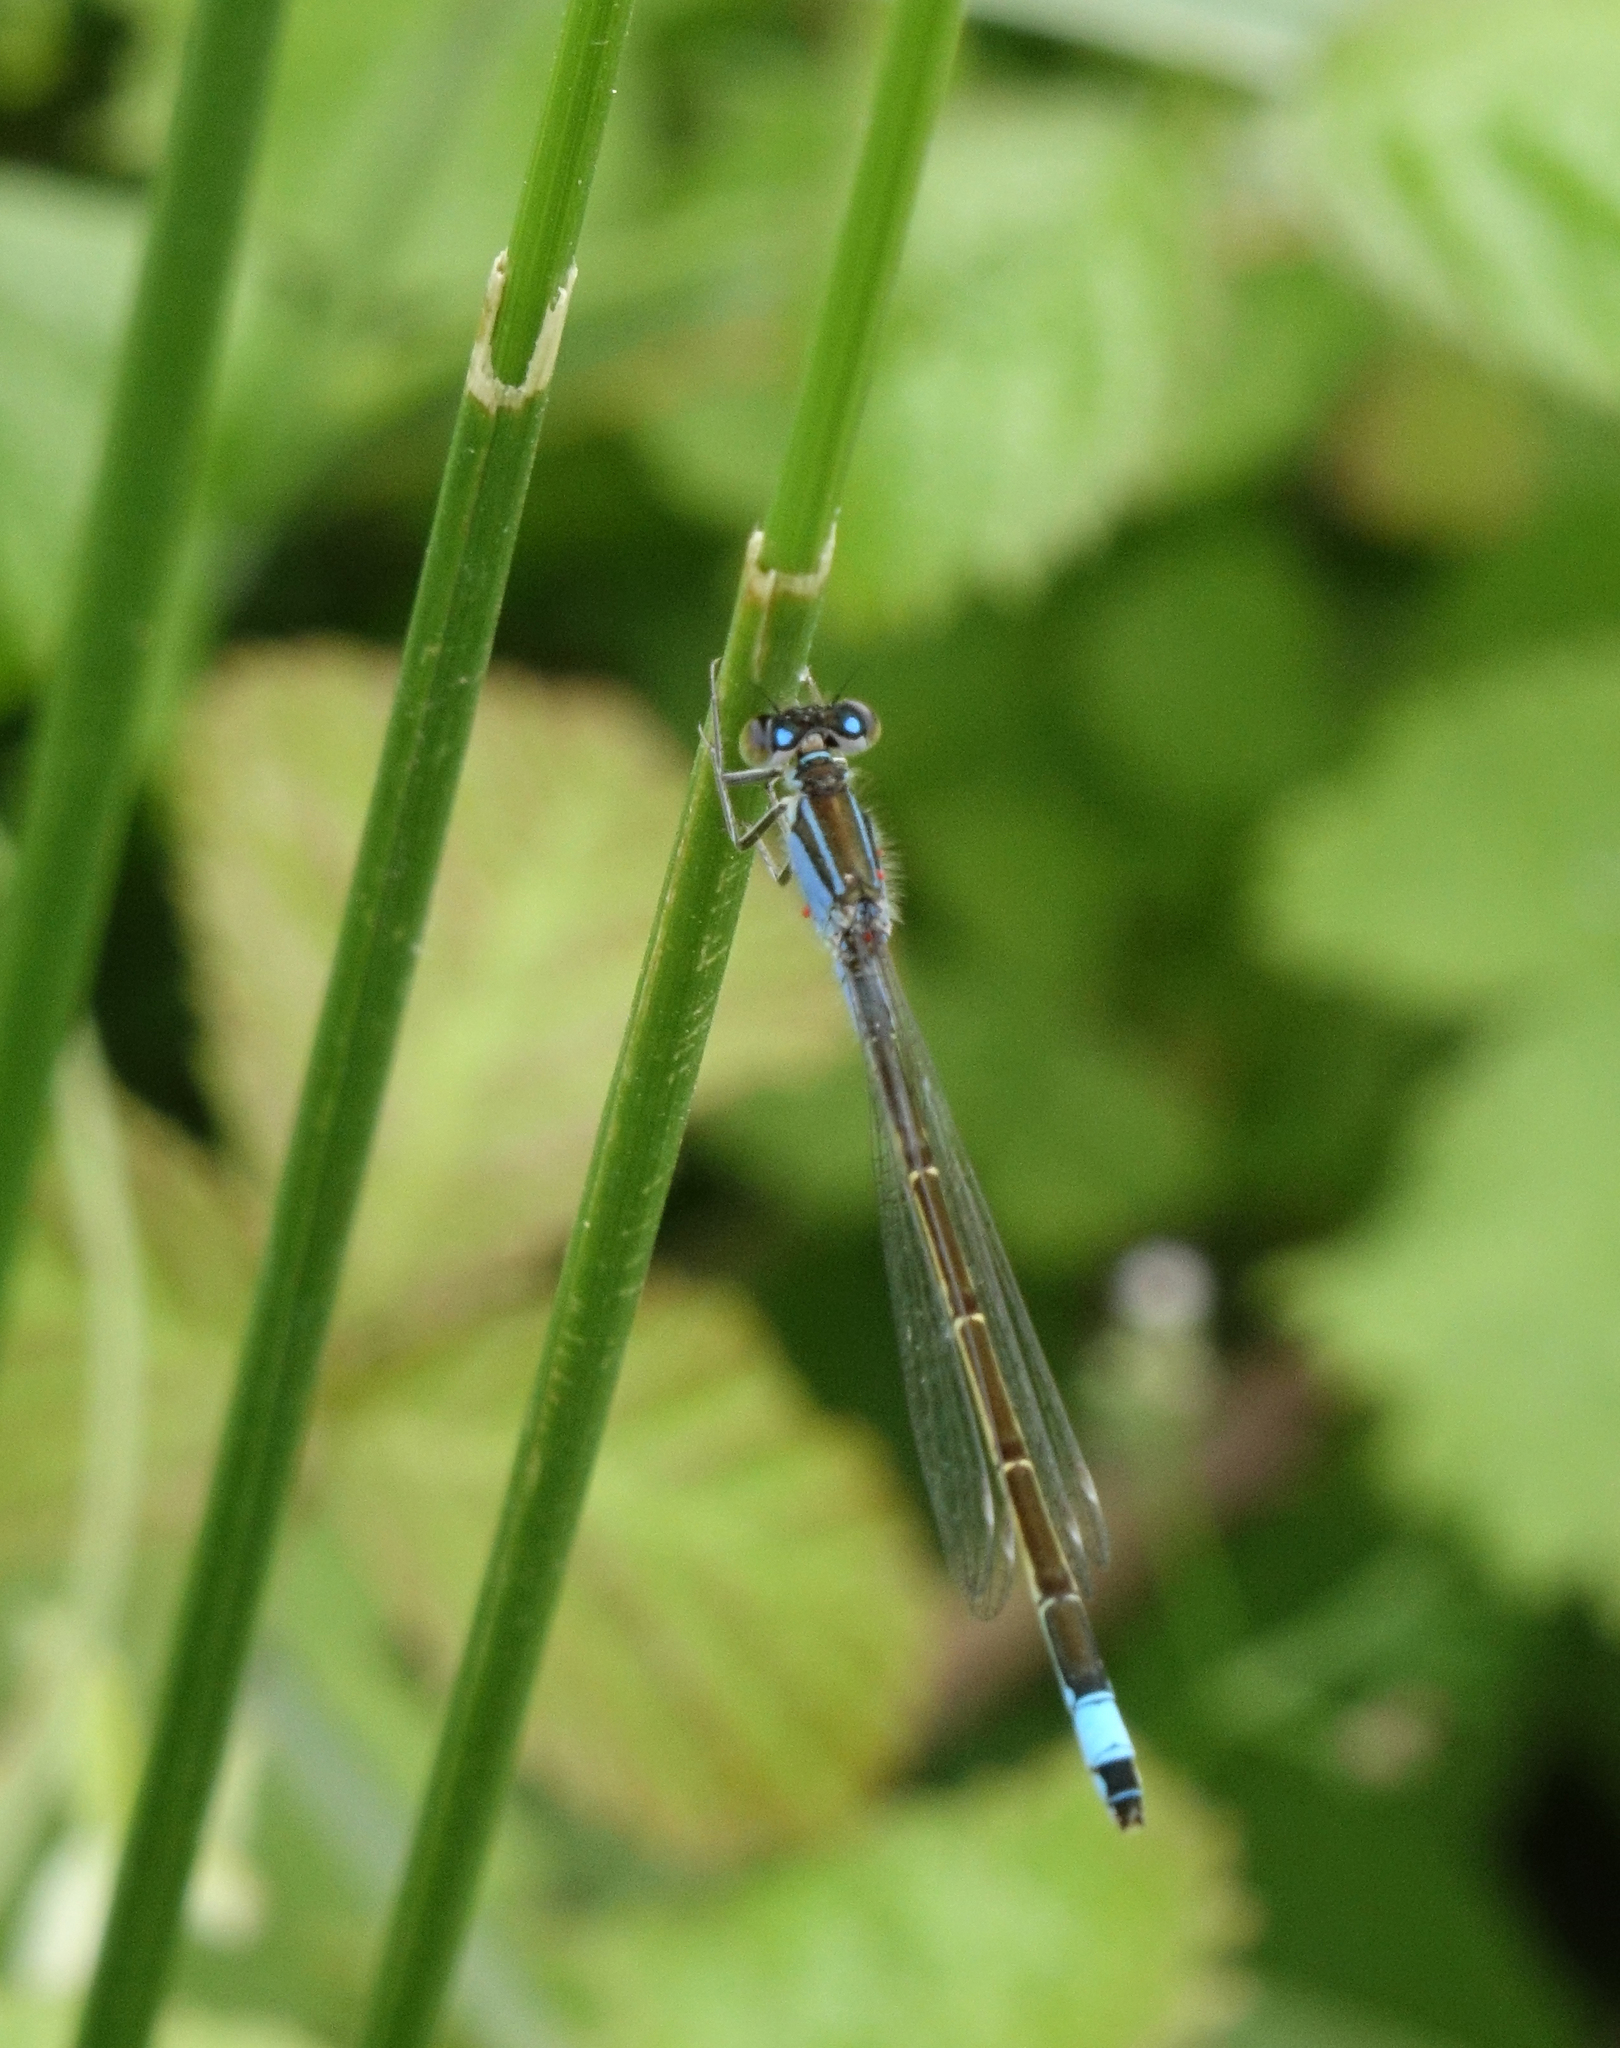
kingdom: Animalia
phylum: Arthropoda
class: Insecta
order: Odonata
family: Coenagrionidae
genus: Ischnura
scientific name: Ischnura elegans
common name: Blue-tailed damselfly
